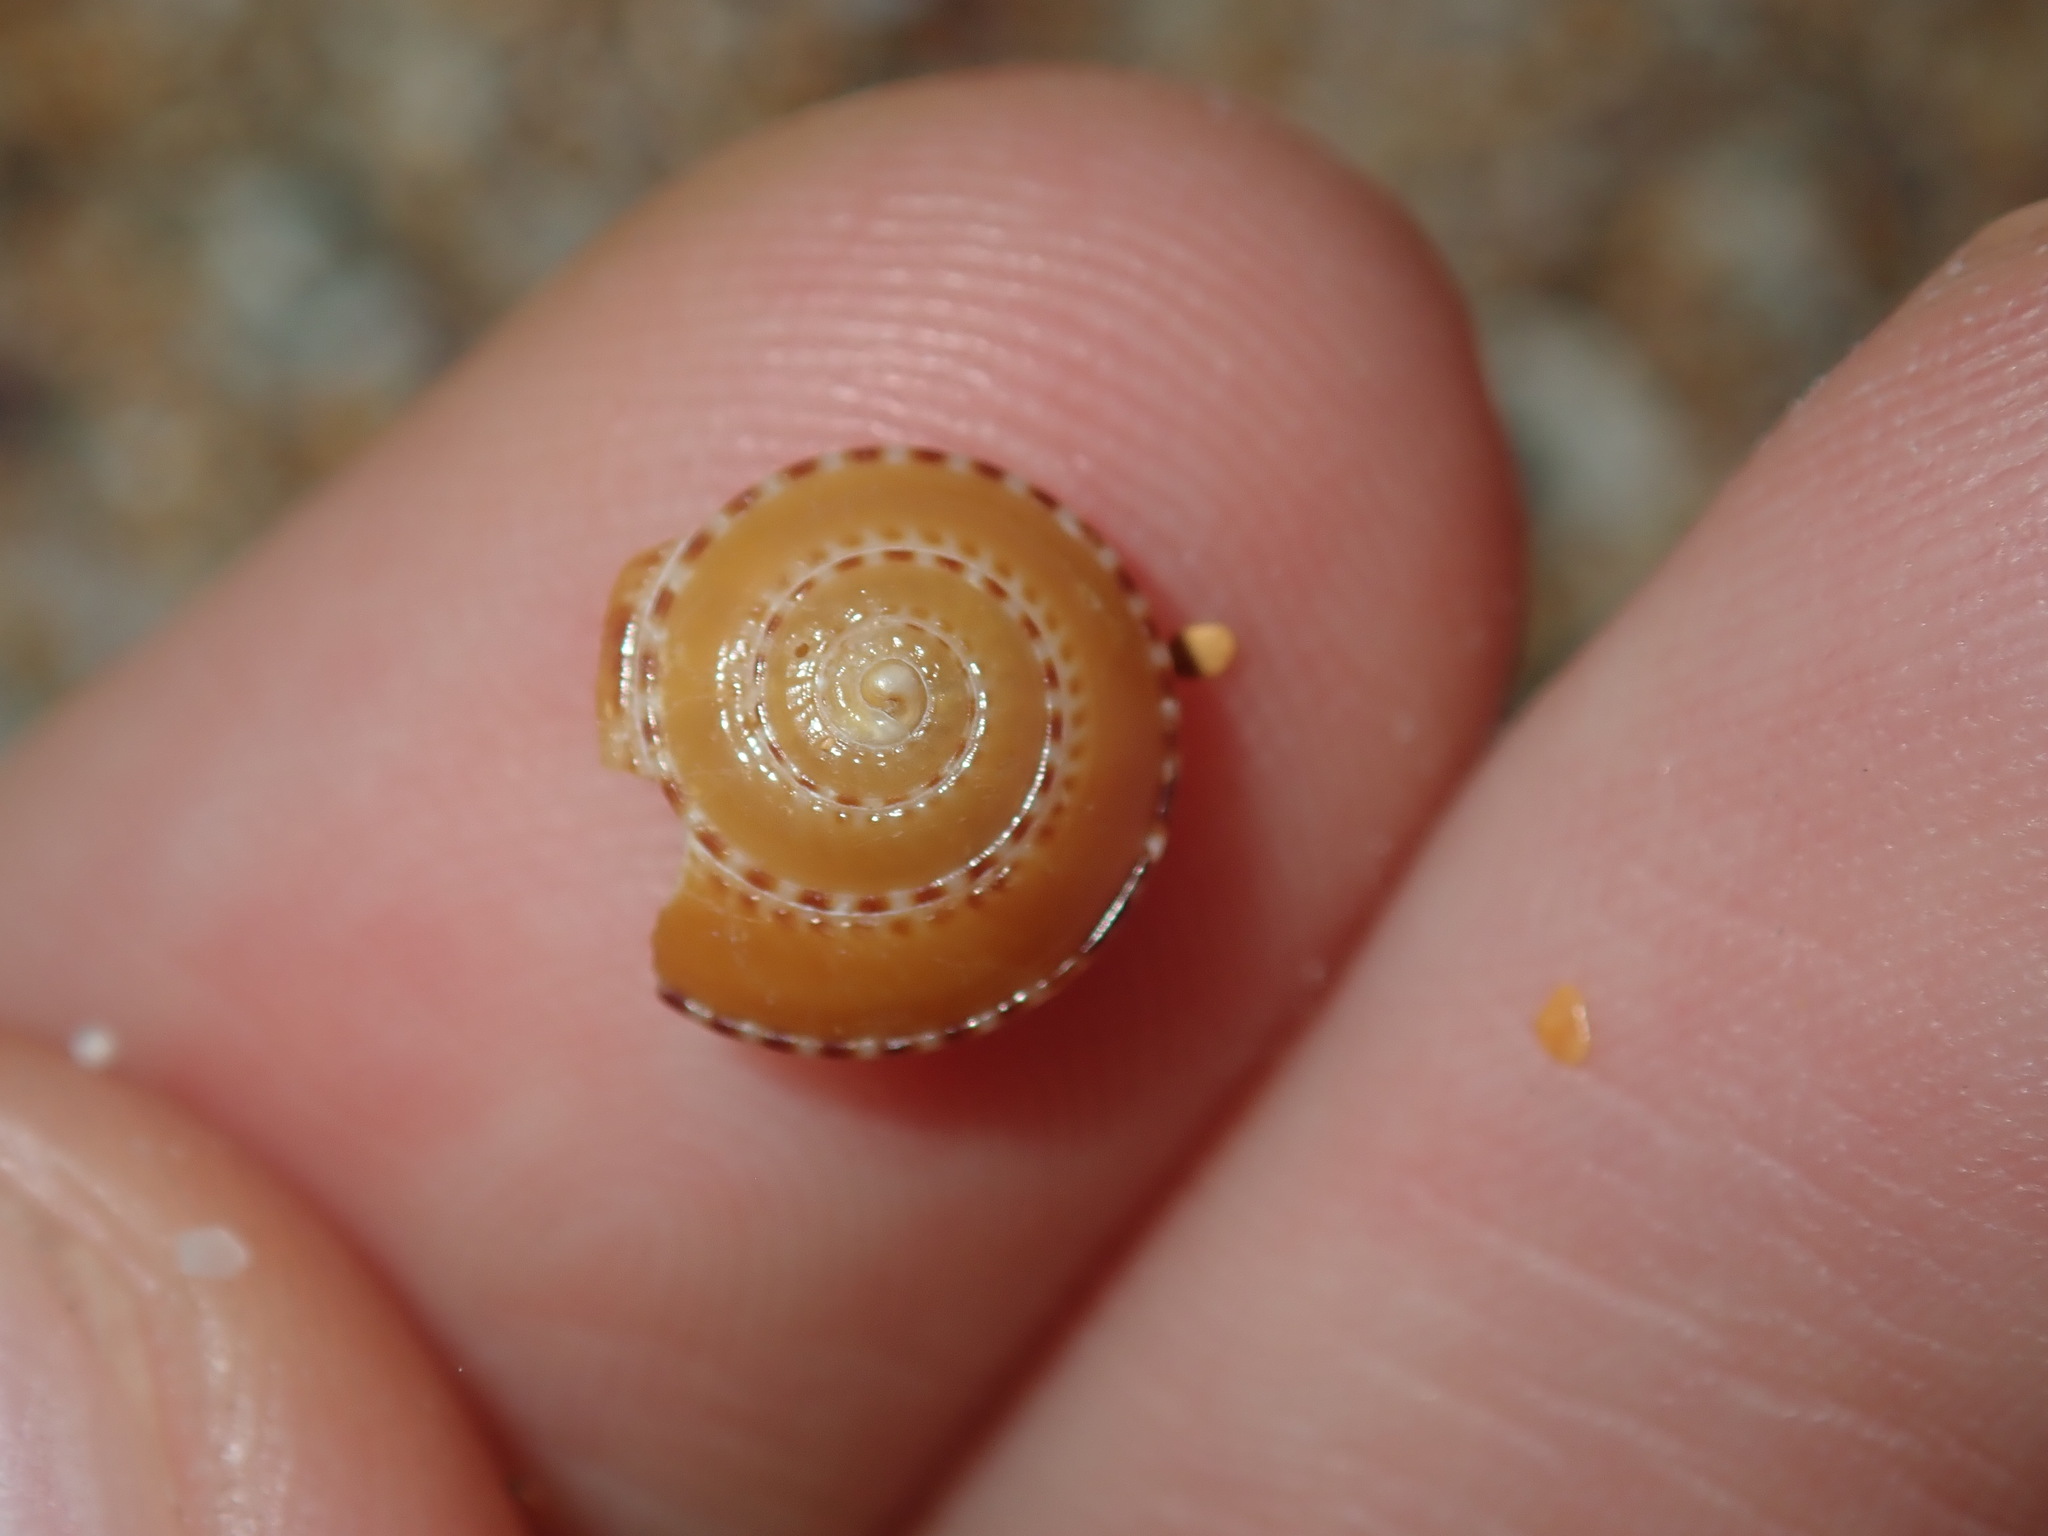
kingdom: Animalia
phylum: Mollusca
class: Gastropoda
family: Architectonicidae
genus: Philippia
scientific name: Philippia lutea
